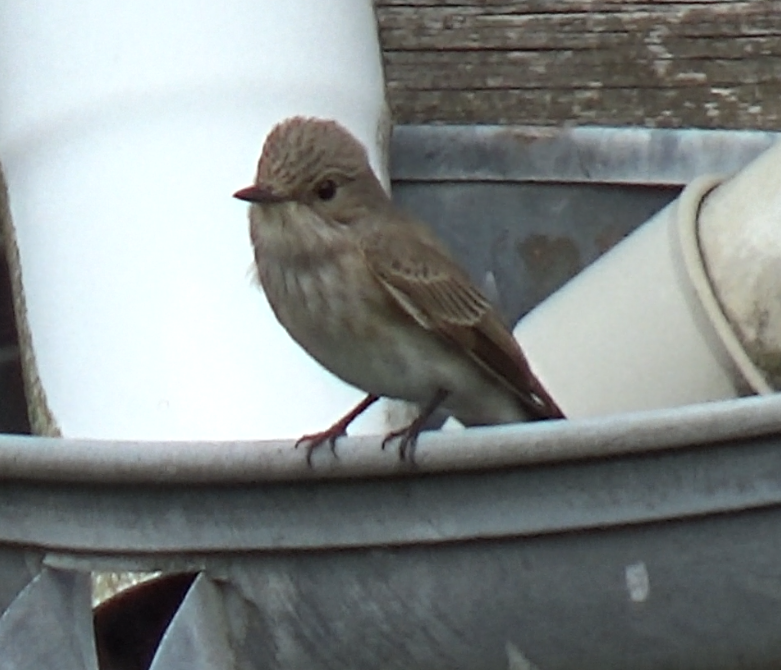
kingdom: Animalia
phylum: Chordata
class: Aves
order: Passeriformes
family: Muscicapidae
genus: Muscicapa
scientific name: Muscicapa striata
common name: Spotted flycatcher
